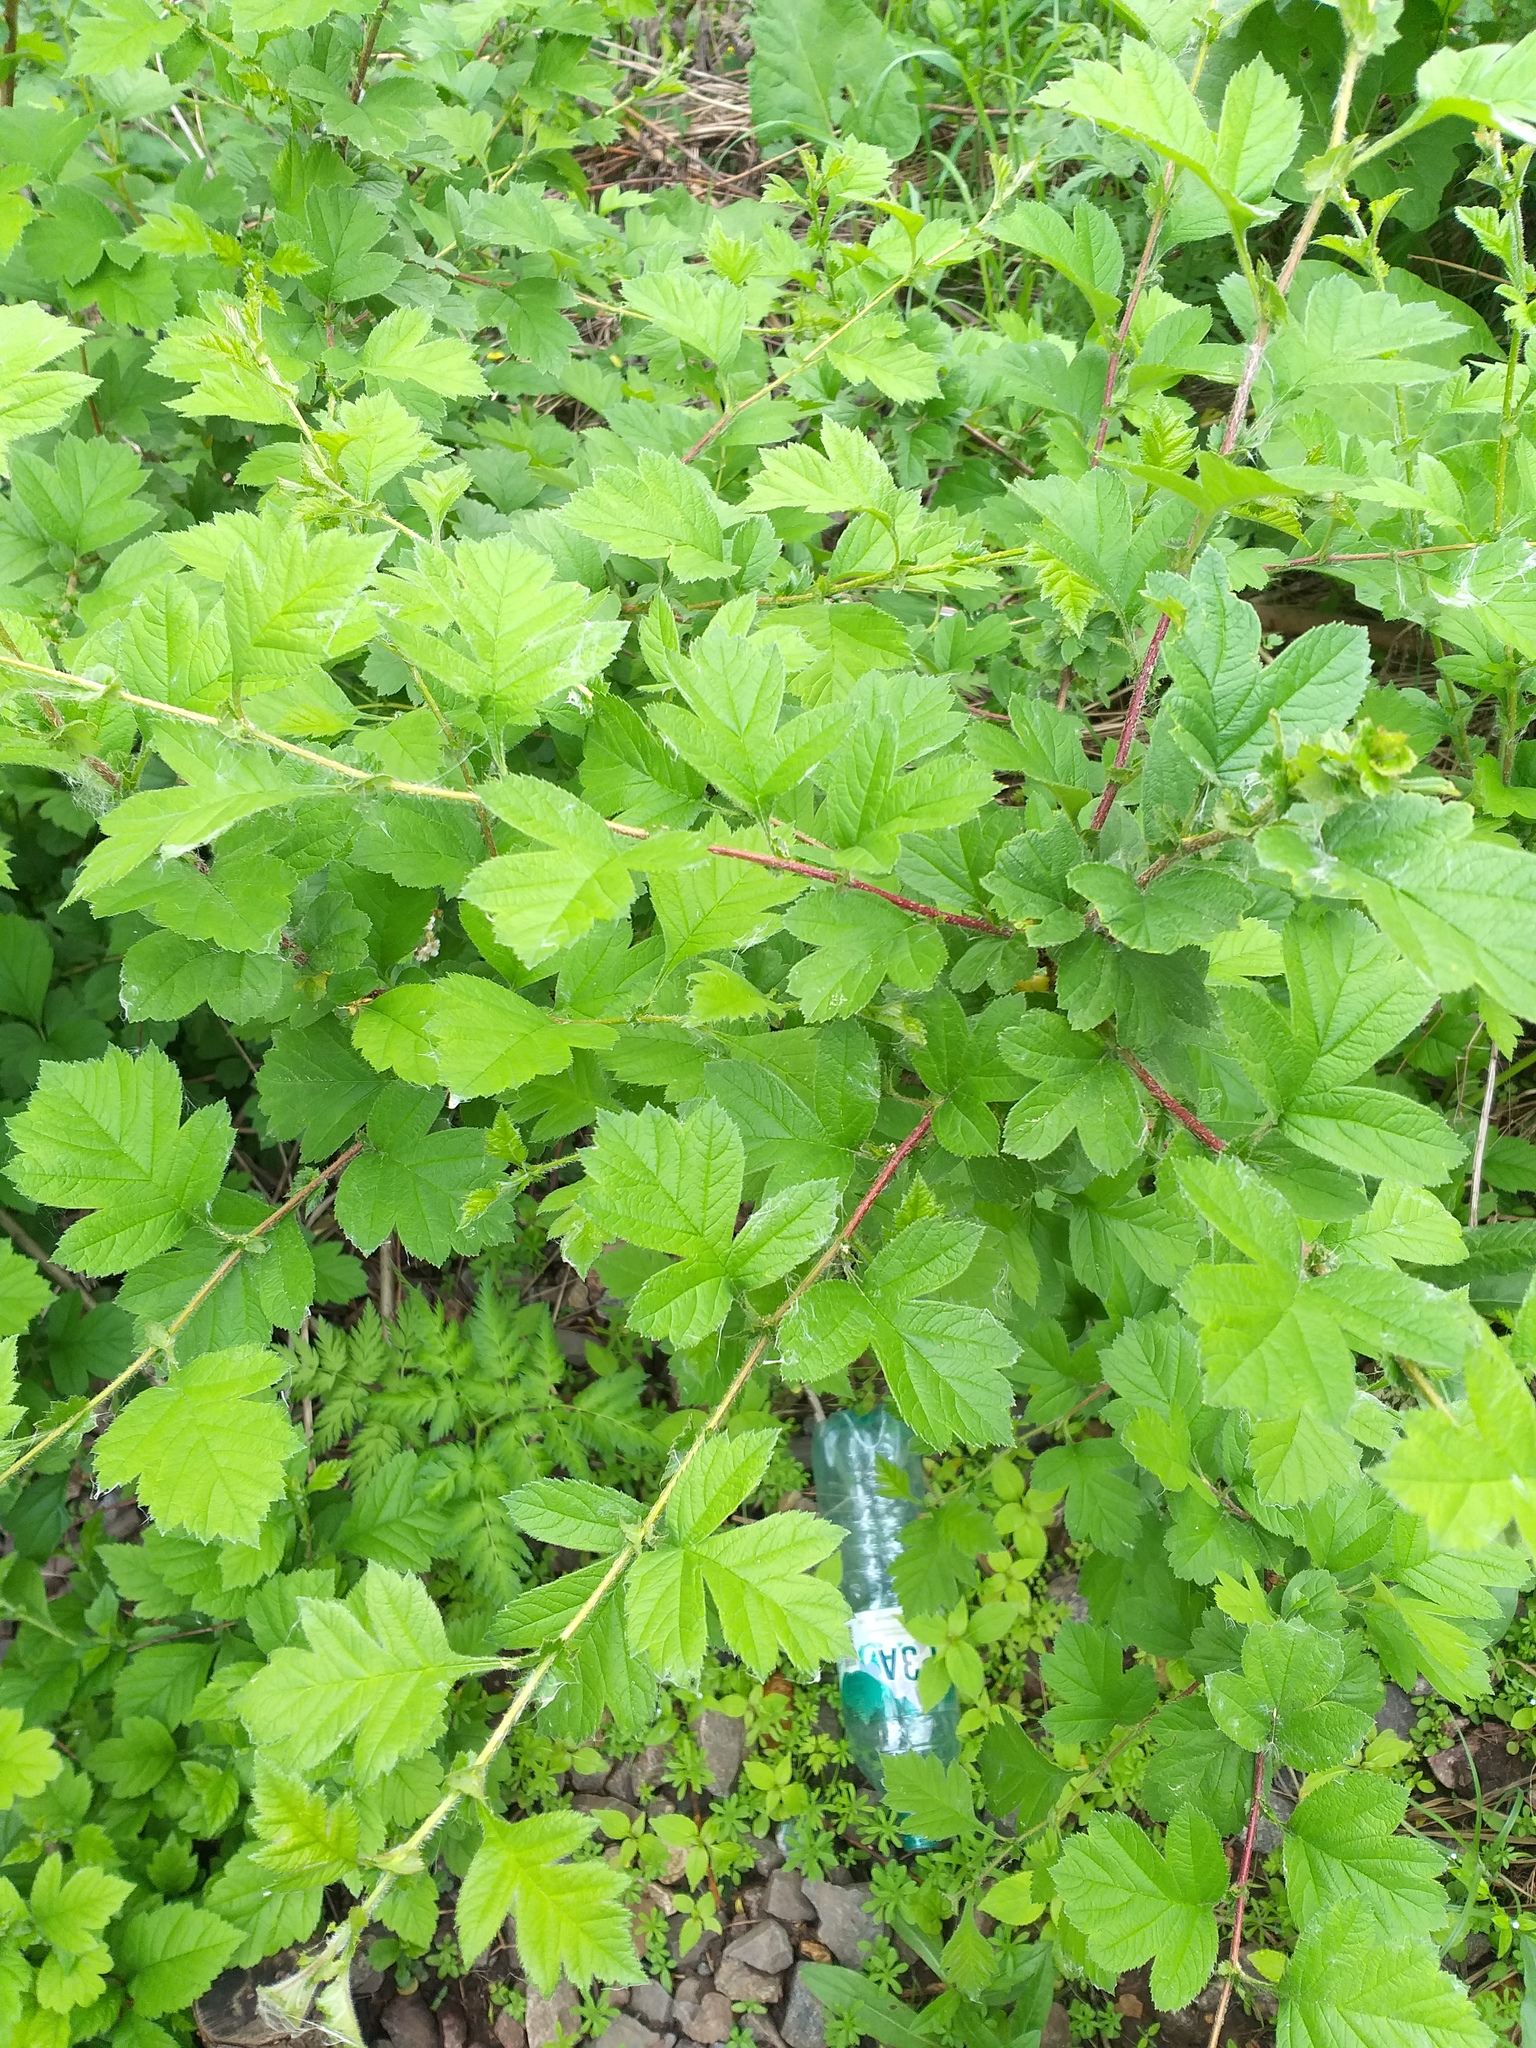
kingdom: Plantae
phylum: Tracheophyta
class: Magnoliopsida
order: Rosales
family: Rosaceae
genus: Crataegus
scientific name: Crataegus maximowiczii
